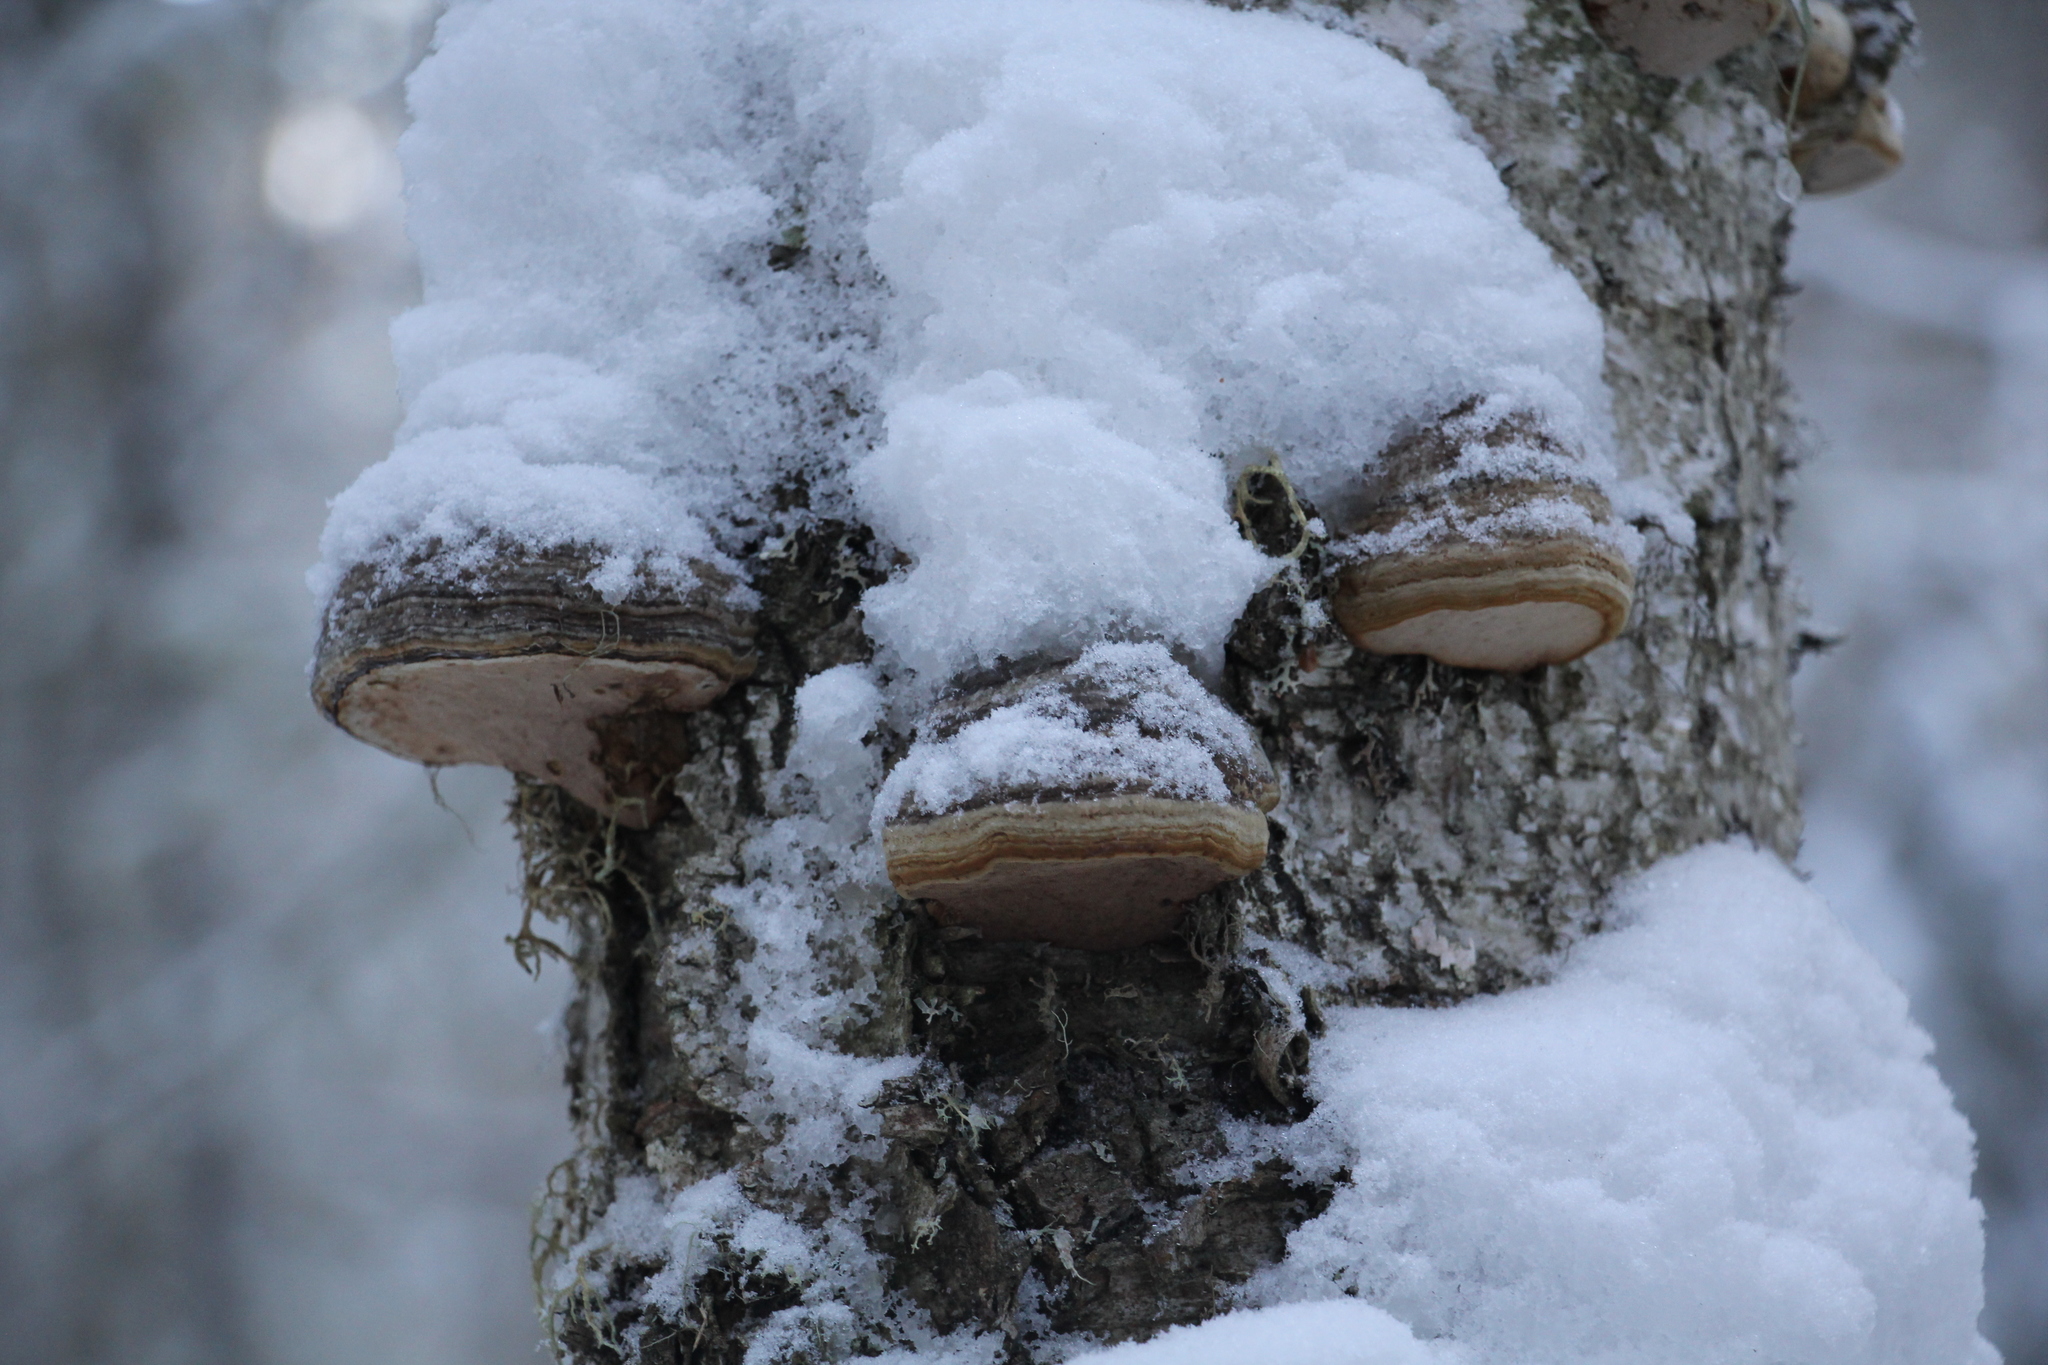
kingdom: Fungi
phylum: Basidiomycota
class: Agaricomycetes
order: Polyporales
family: Polyporaceae
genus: Fomes
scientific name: Fomes fomentarius
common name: Hoof fungus
